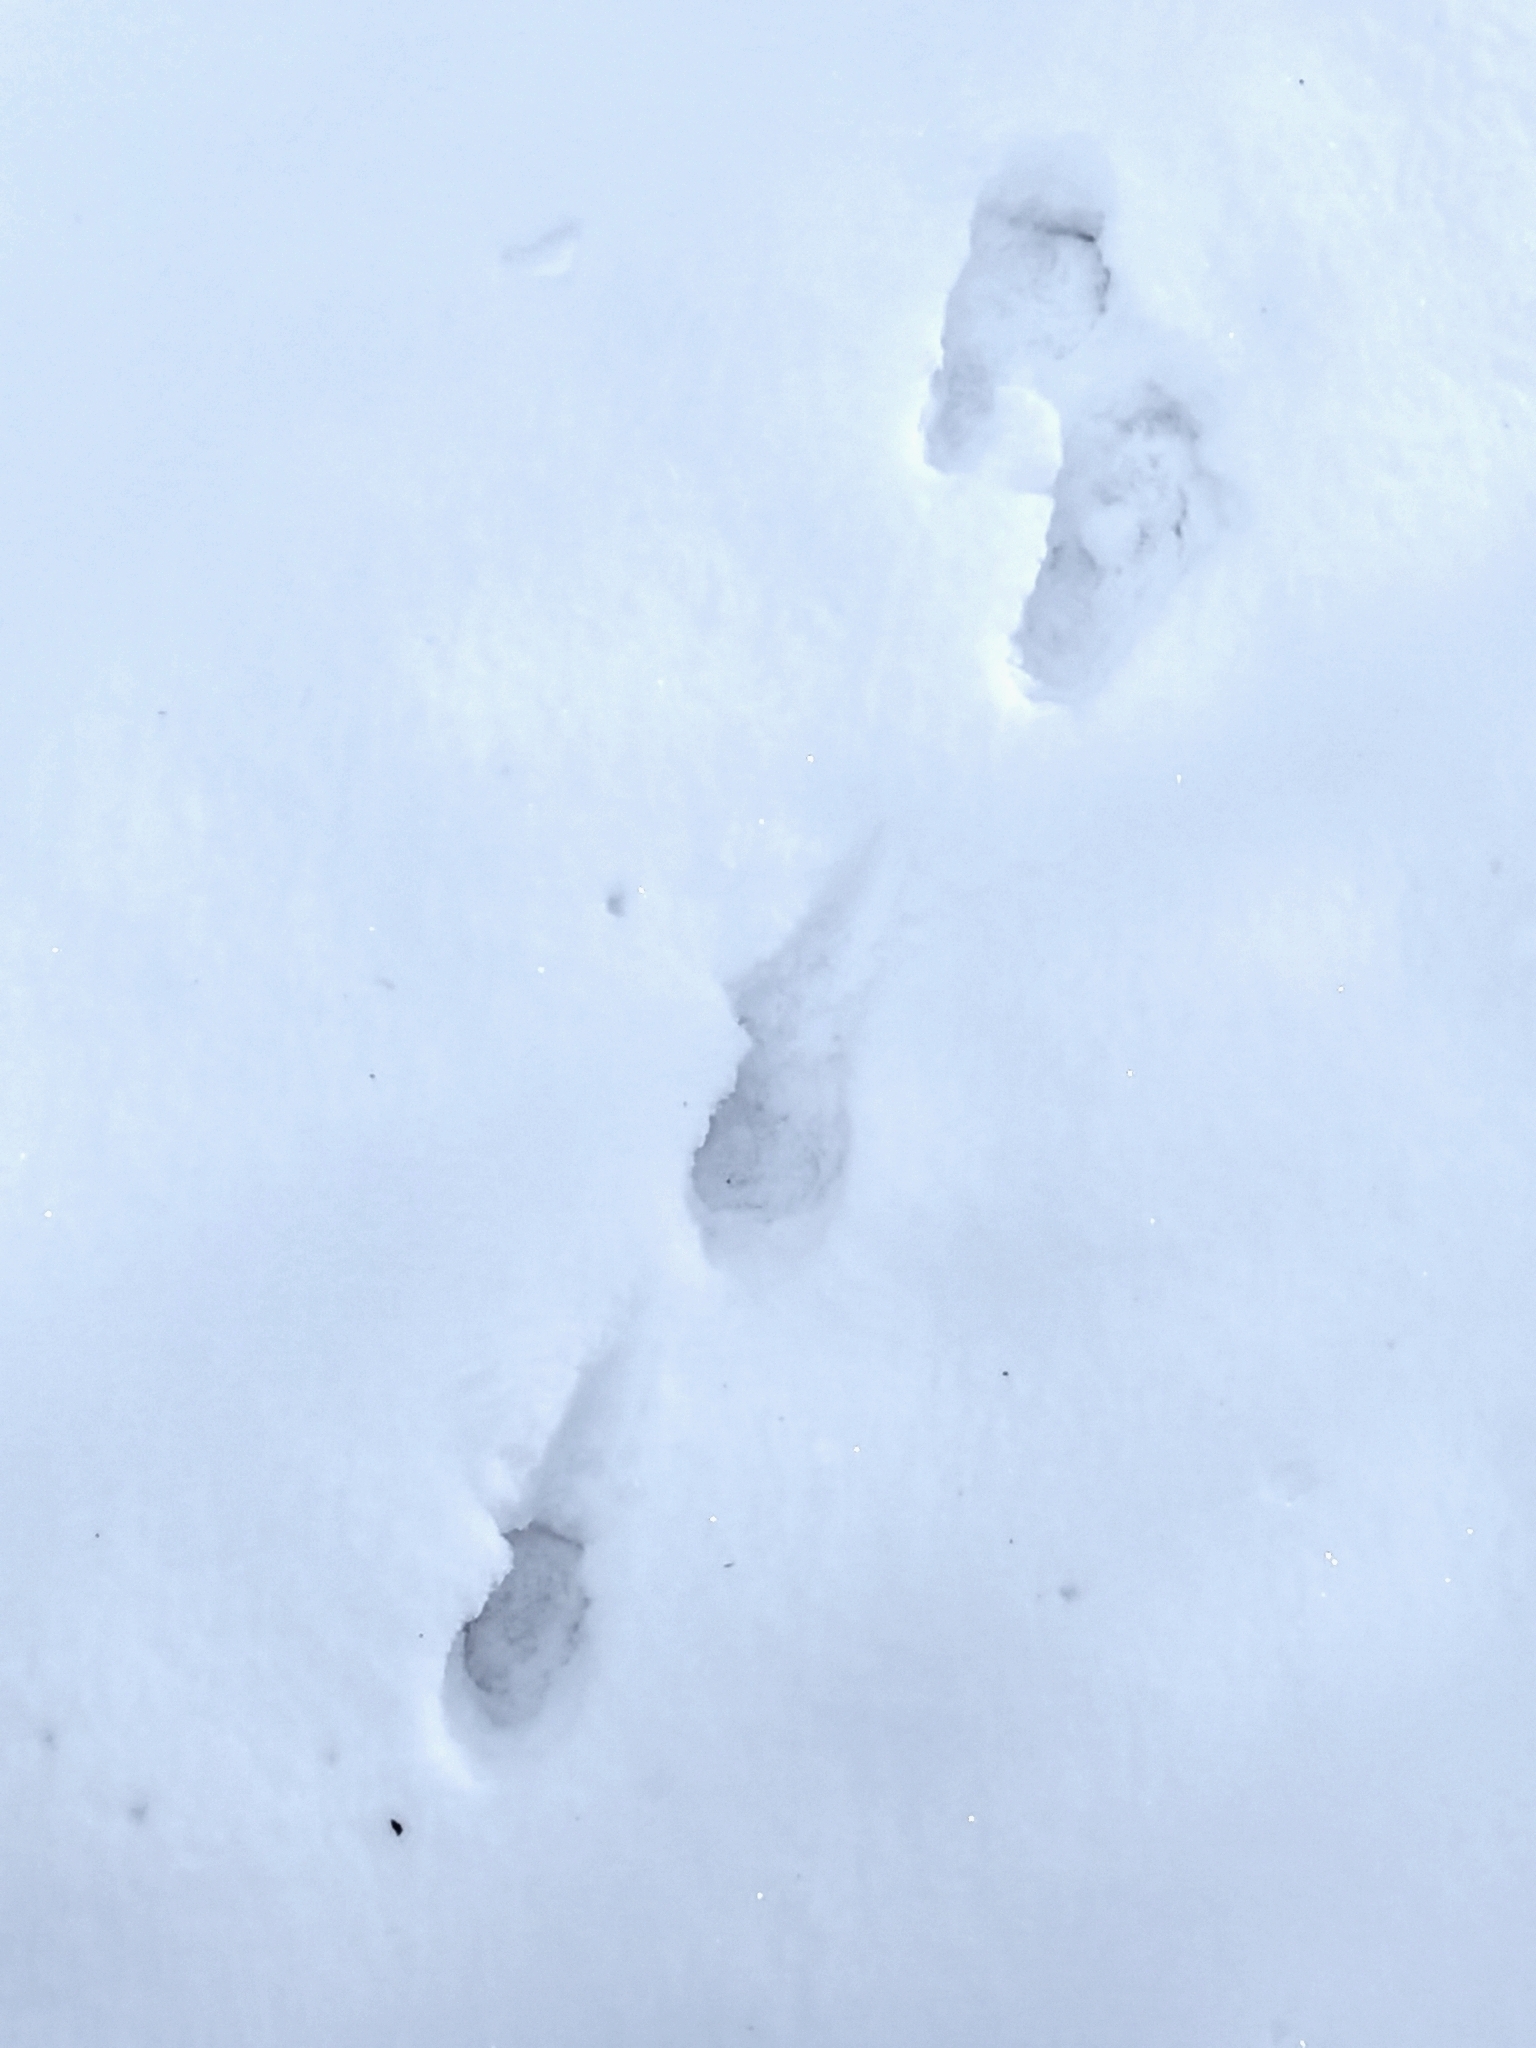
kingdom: Animalia
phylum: Chordata
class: Mammalia
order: Lagomorpha
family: Leporidae
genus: Lepus
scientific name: Lepus europaeus
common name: European hare
